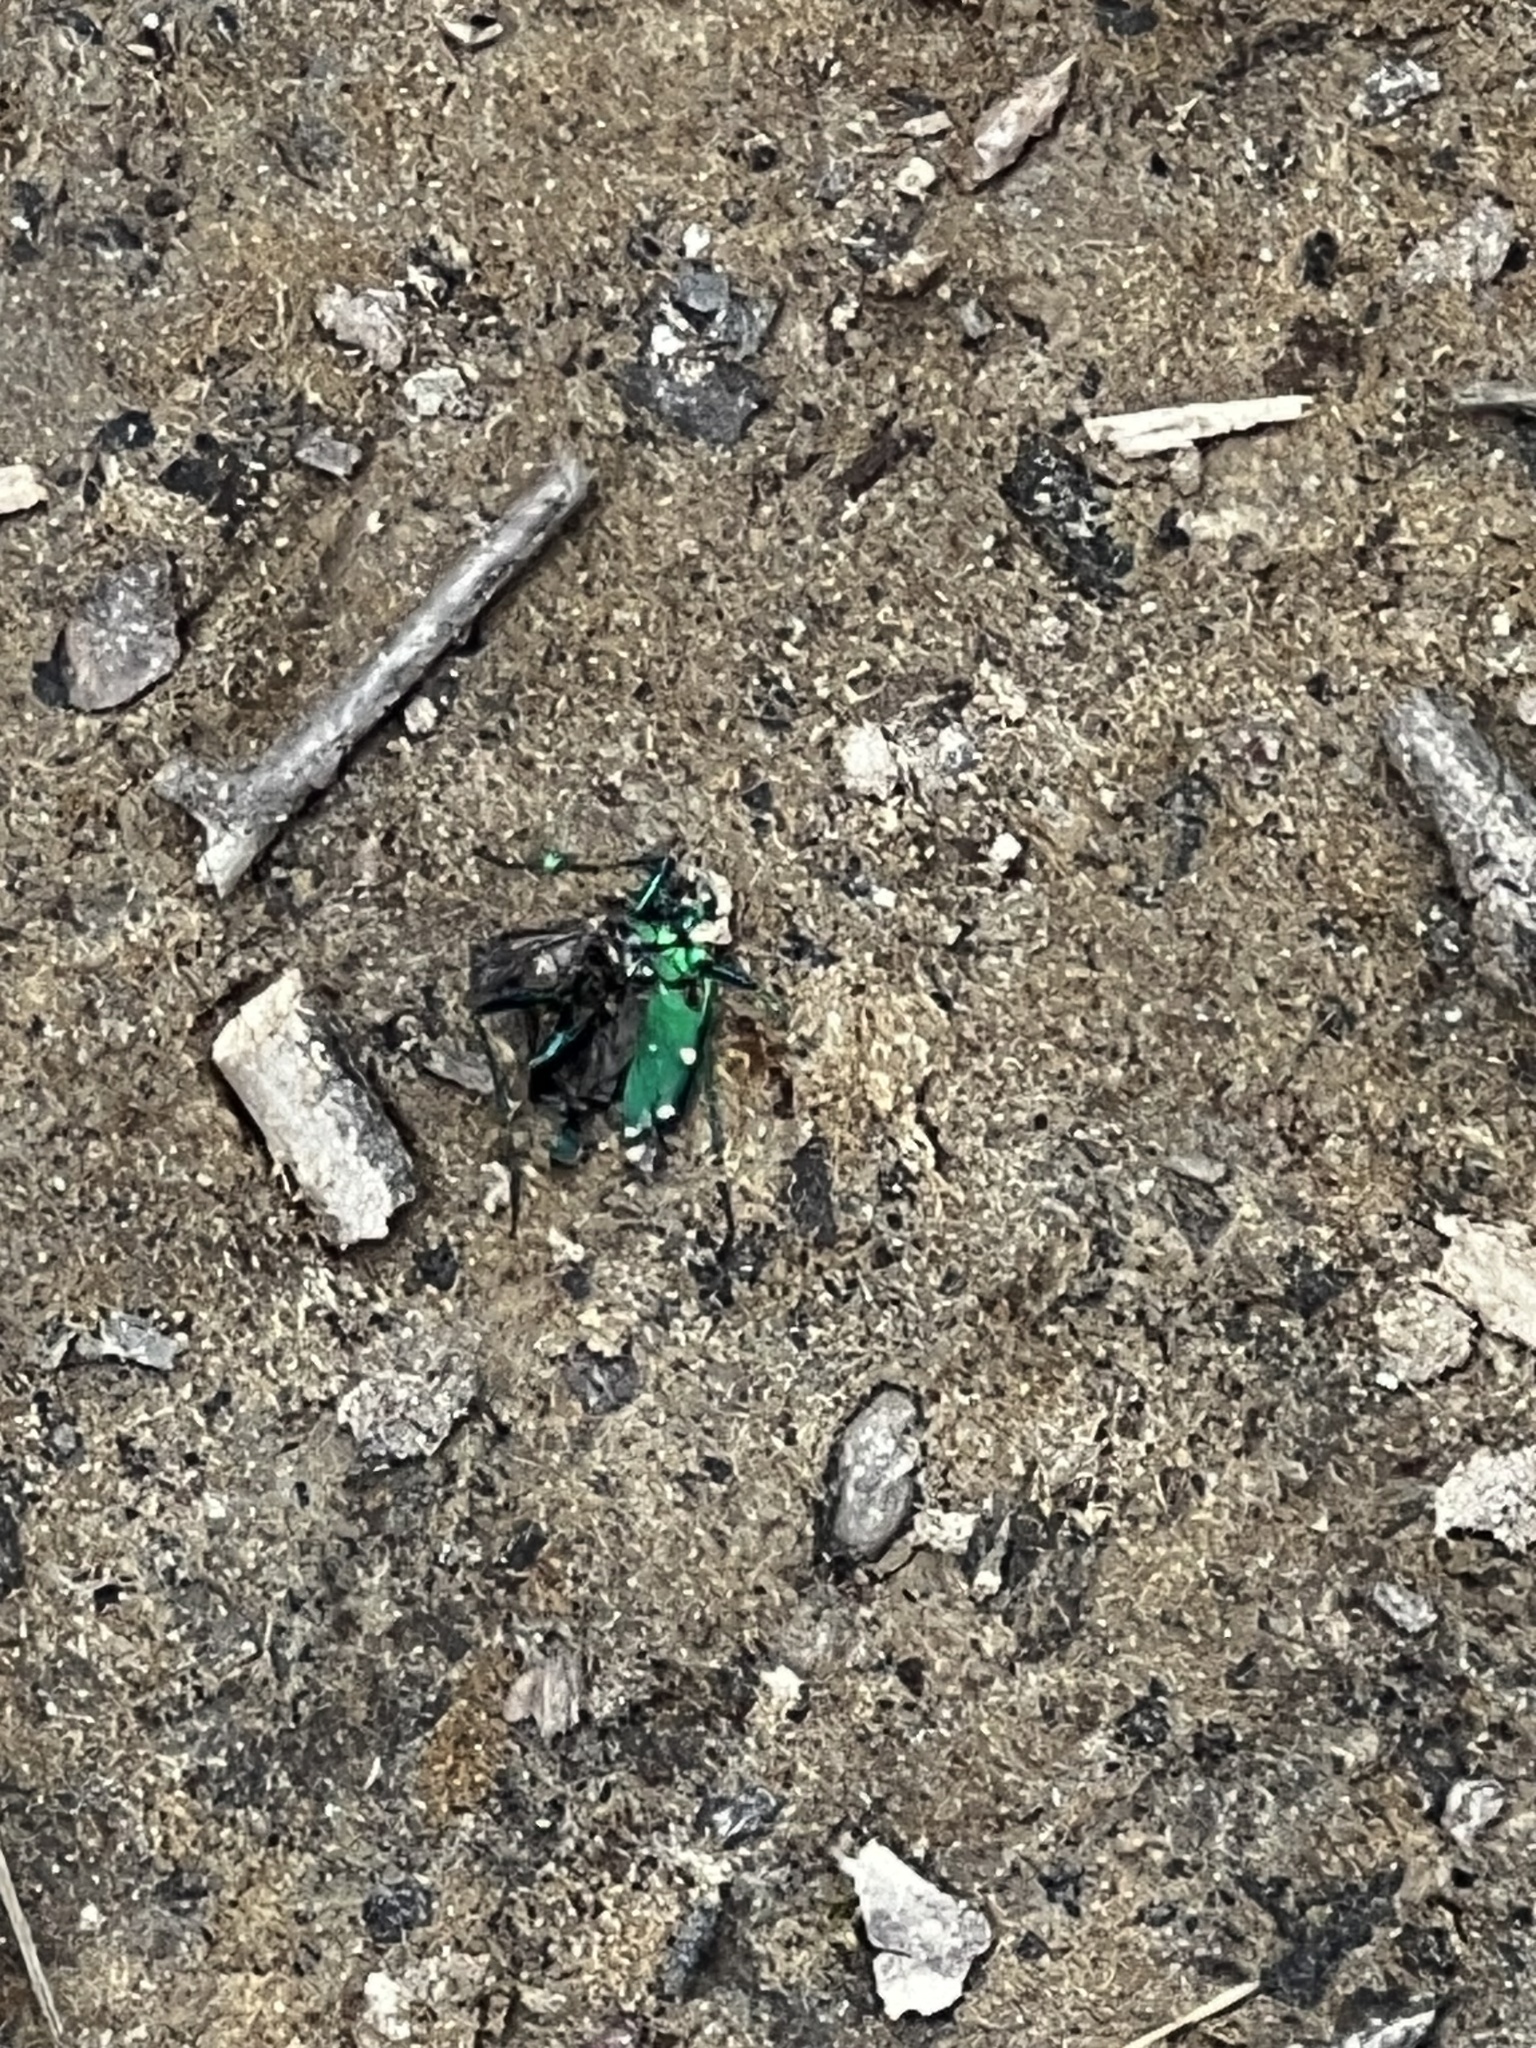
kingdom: Animalia
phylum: Arthropoda
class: Insecta
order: Coleoptera
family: Carabidae
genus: Cicindela
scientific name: Cicindela sexguttata
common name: Six-spotted tiger beetle
